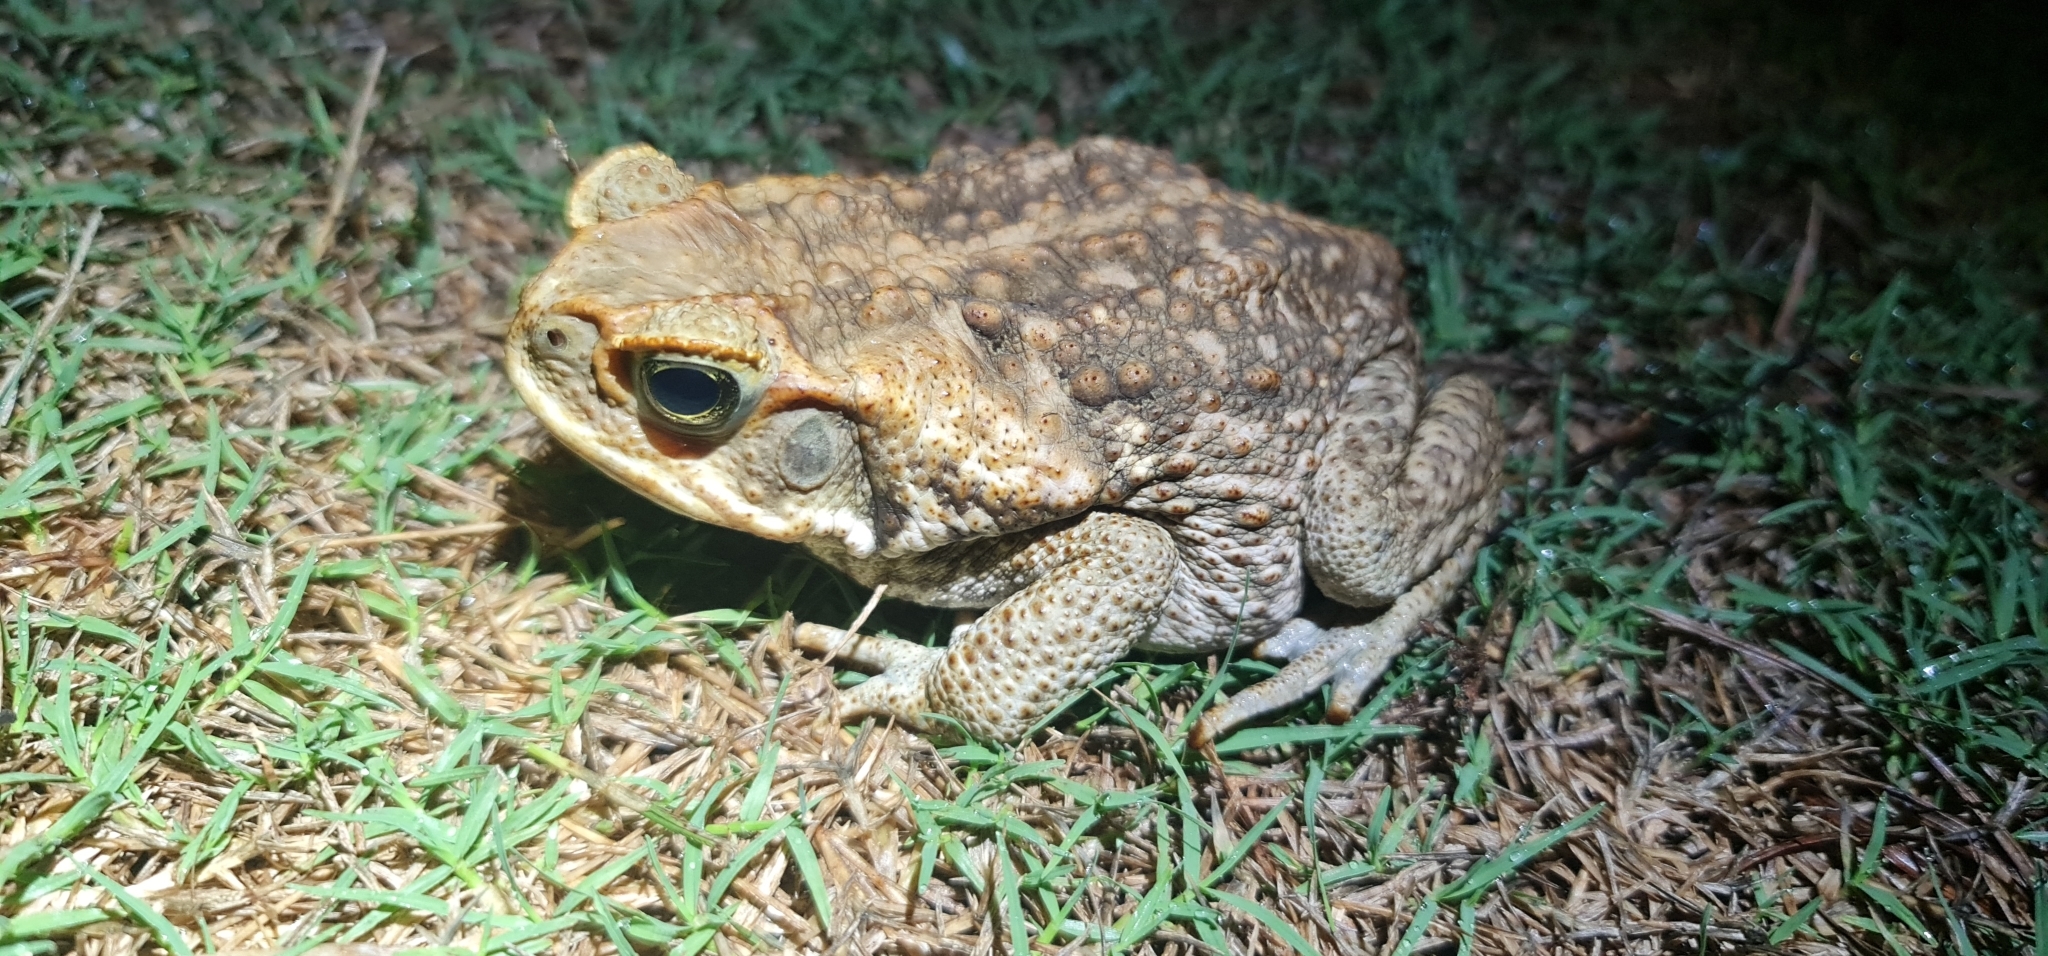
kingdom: Animalia
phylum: Chordata
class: Amphibia
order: Anura
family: Bufonidae
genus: Rhinella
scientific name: Rhinella marina
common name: Cane toad
